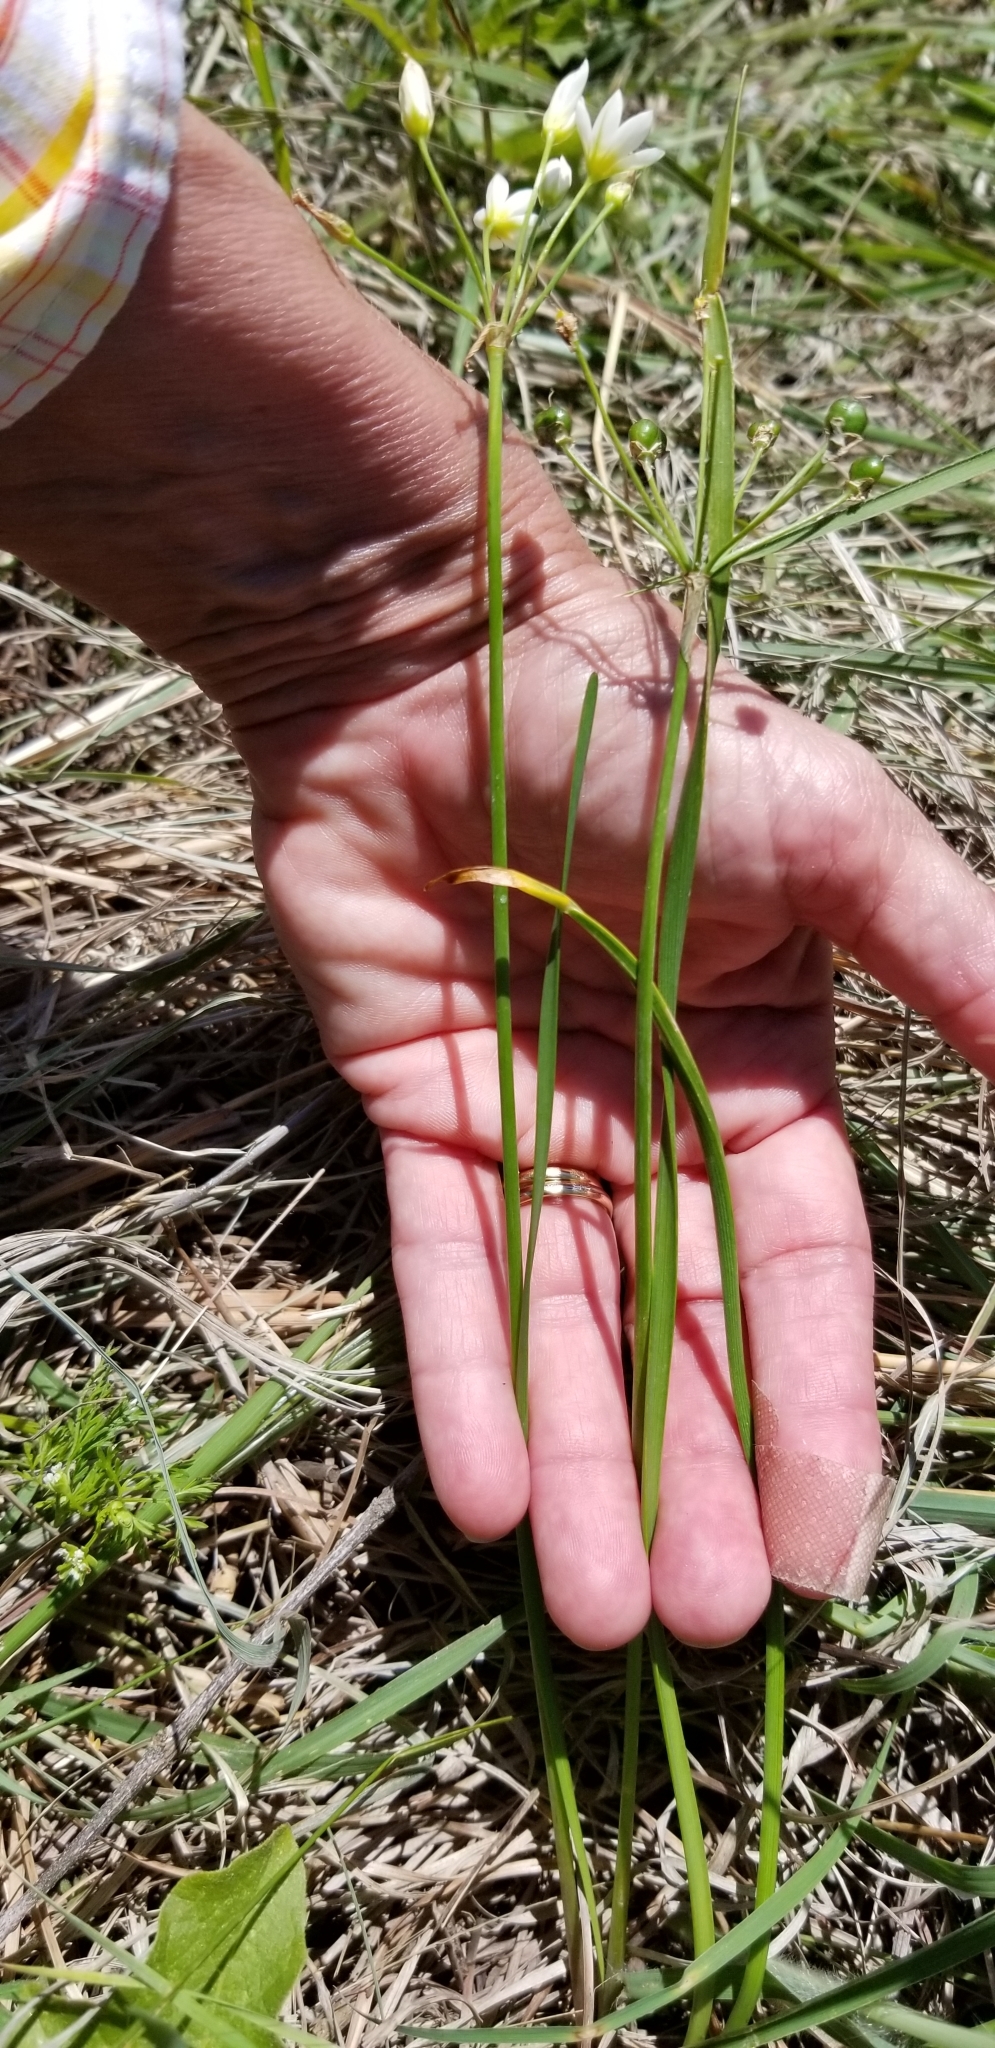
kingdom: Plantae
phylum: Tracheophyta
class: Liliopsida
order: Asparagales
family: Amaryllidaceae
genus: Nothoscordum
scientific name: Nothoscordum bivalve
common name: Crow-poison
